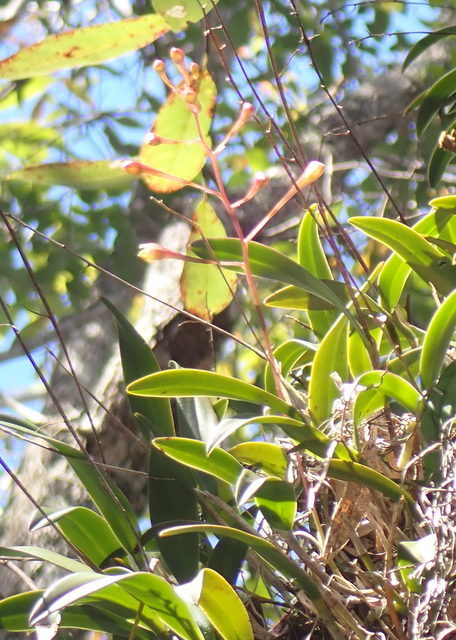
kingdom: Plantae
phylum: Tracheophyta
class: Liliopsida
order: Asparagales
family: Orchidaceae
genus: Epidendrum
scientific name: Epidendrum conopseum
